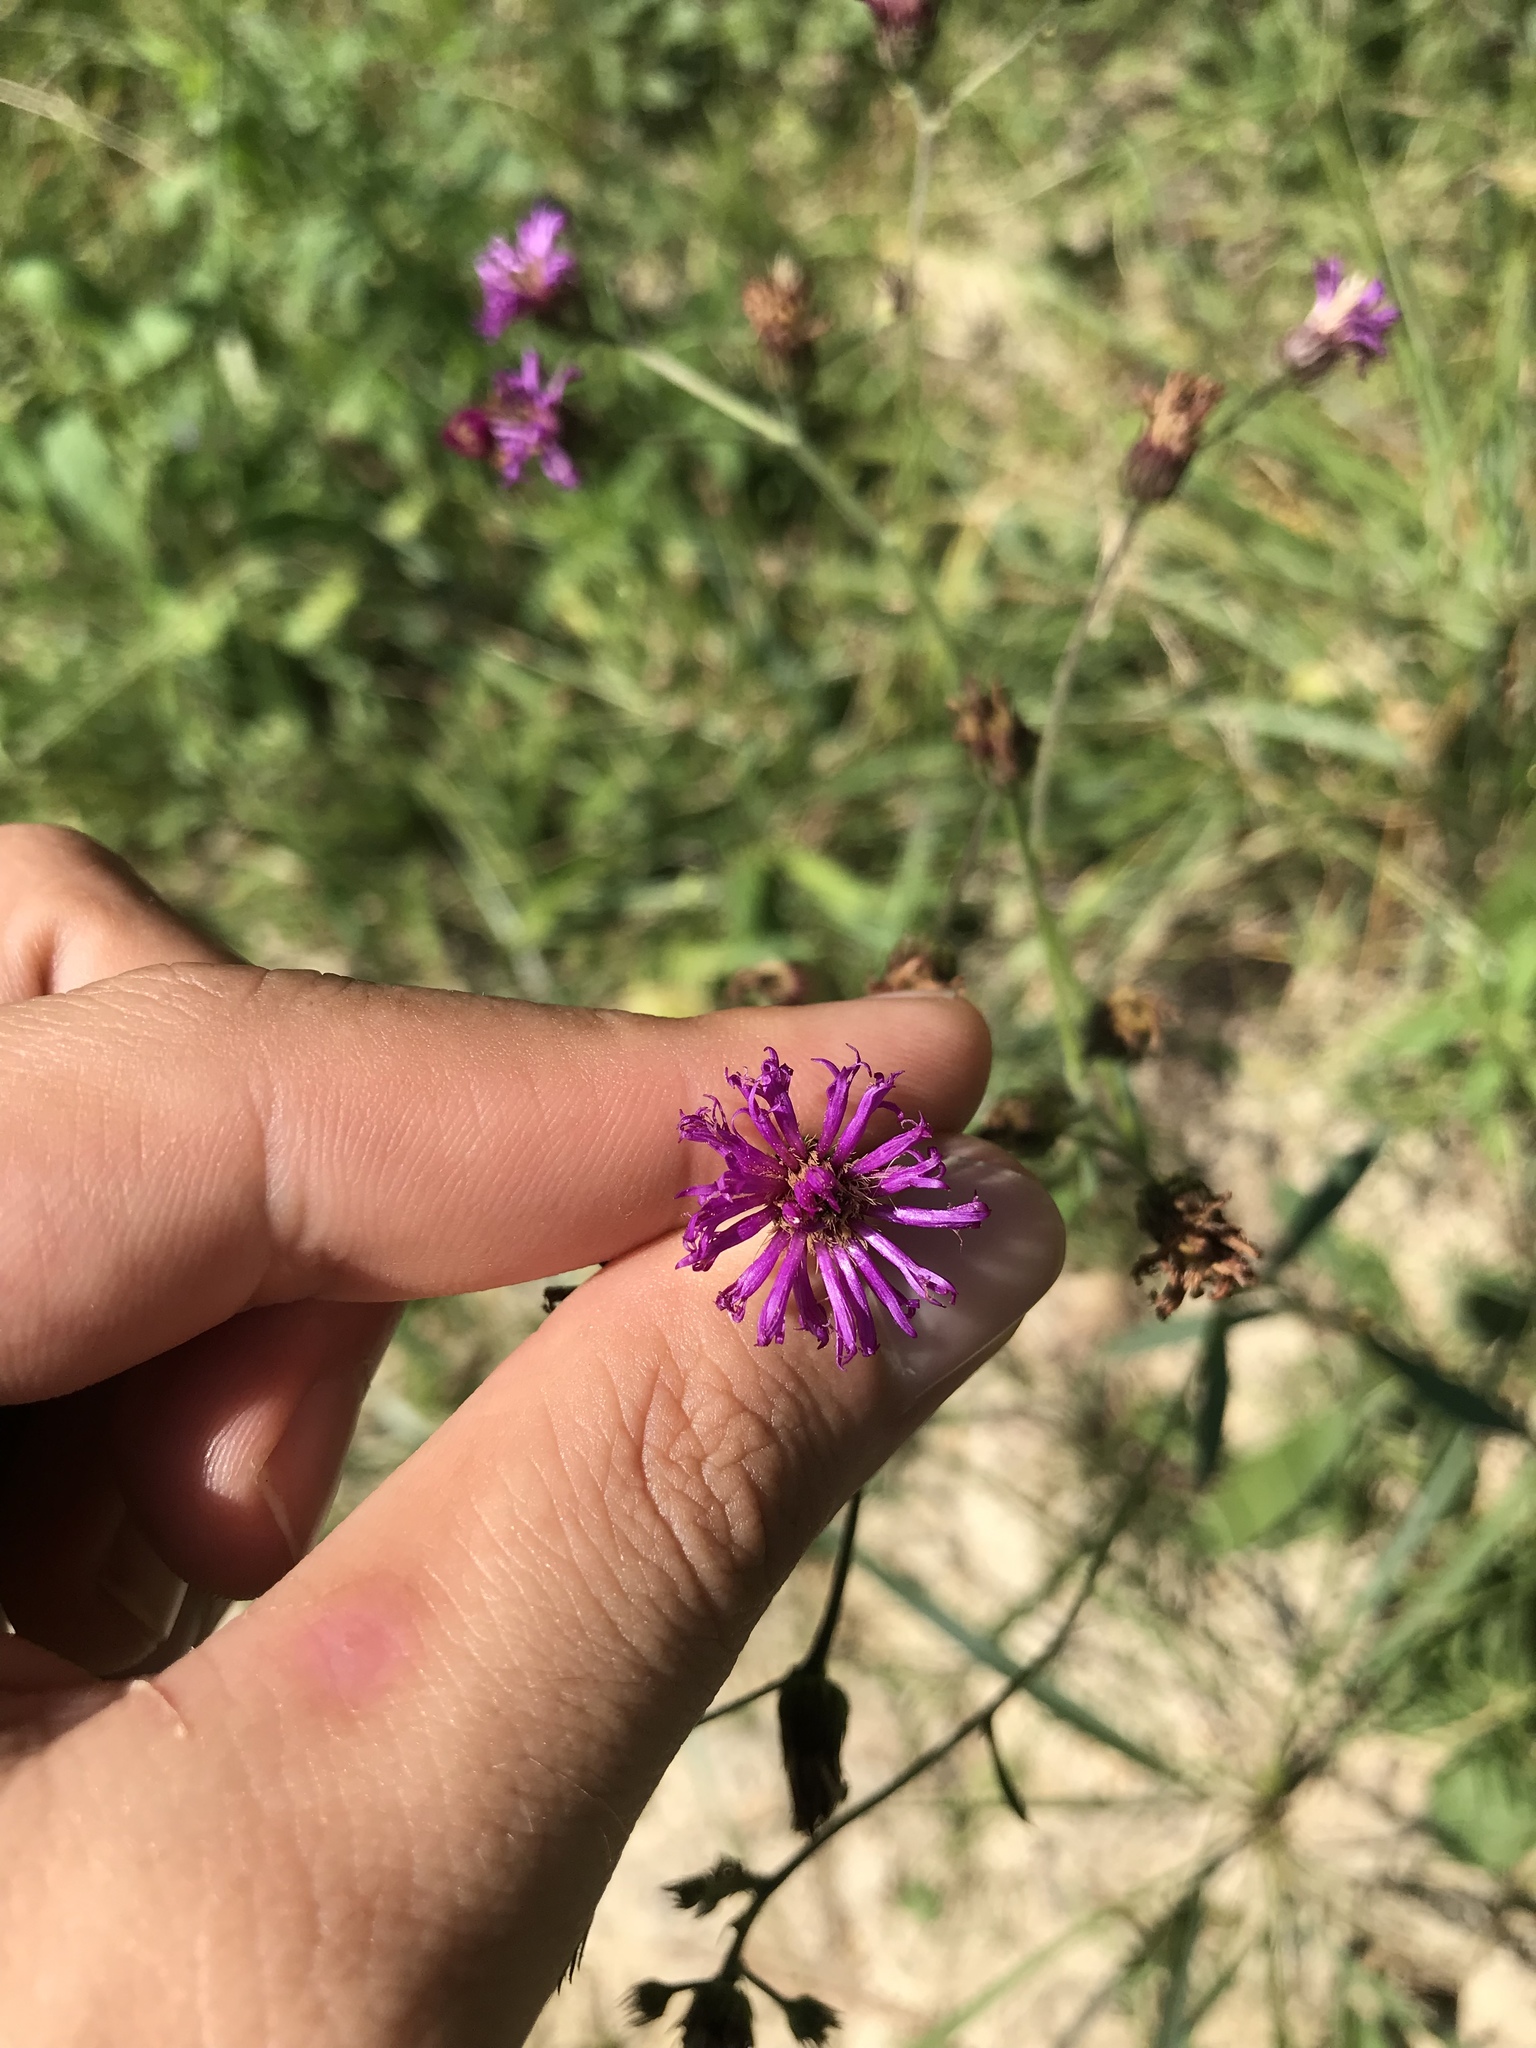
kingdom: Plantae
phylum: Tracheophyta
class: Magnoliopsida
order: Asterales
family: Asteraceae
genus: Vernonia
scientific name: Vernonia acaulis
